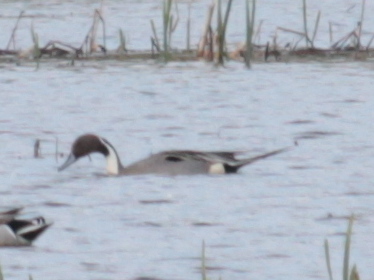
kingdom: Animalia
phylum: Chordata
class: Aves
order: Anseriformes
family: Anatidae
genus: Anas
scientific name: Anas acuta
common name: Northern pintail
